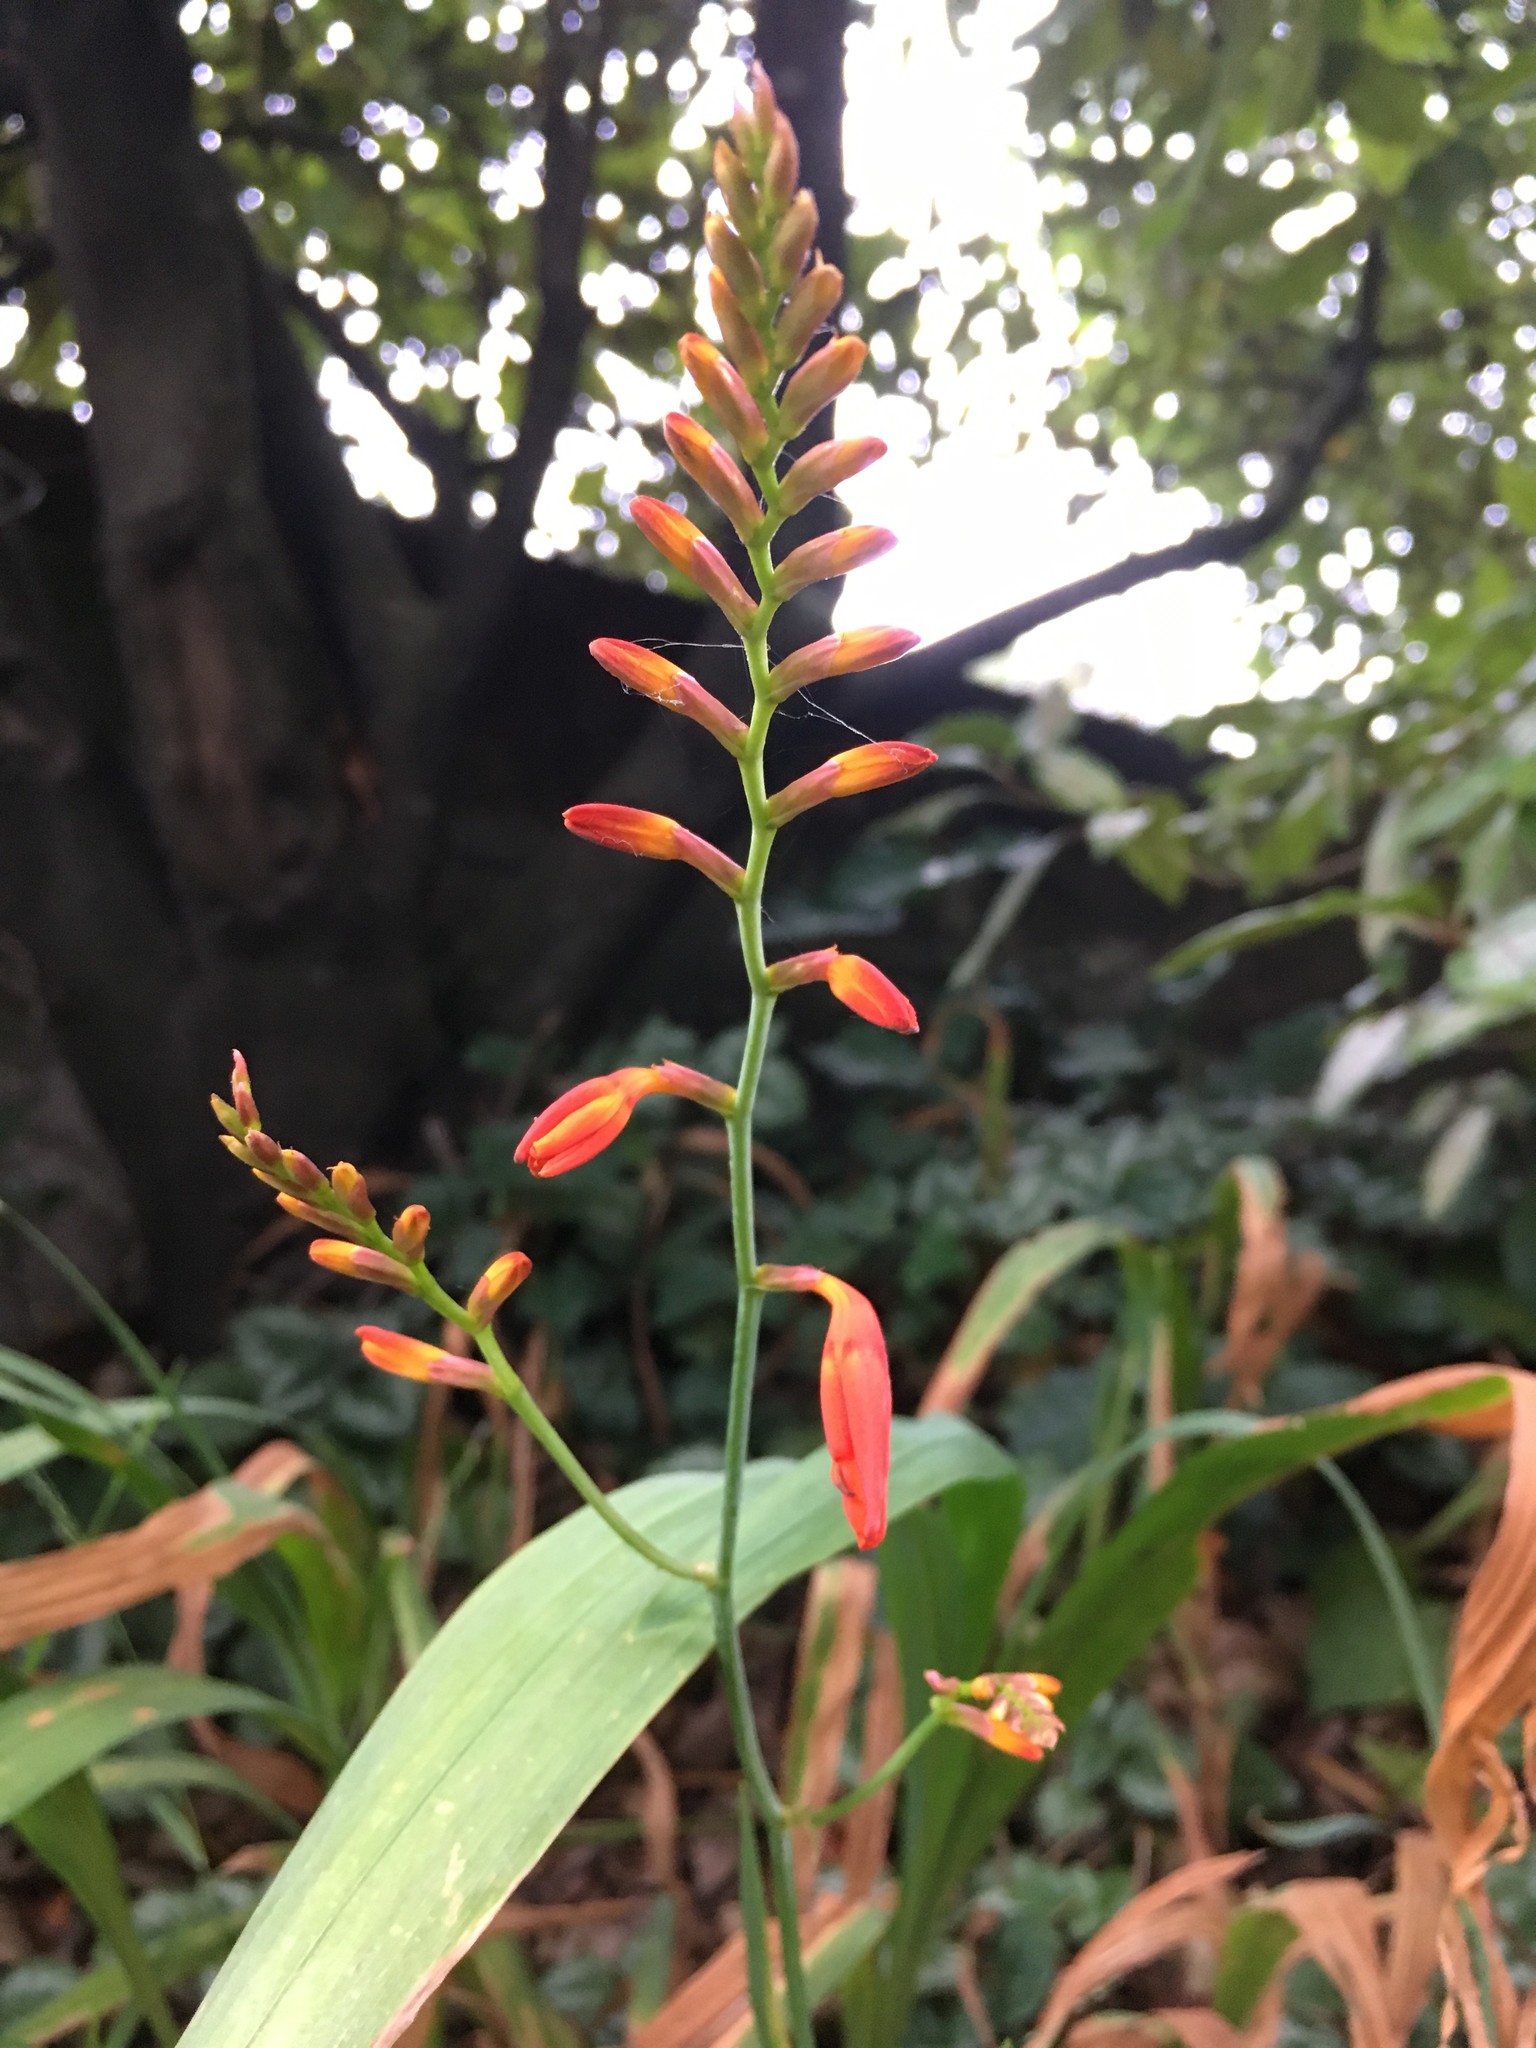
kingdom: Plantae
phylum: Tracheophyta
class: Liliopsida
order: Asparagales
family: Iridaceae
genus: Crocosmia
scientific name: Crocosmia crocosmiiflora
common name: Montbretia
